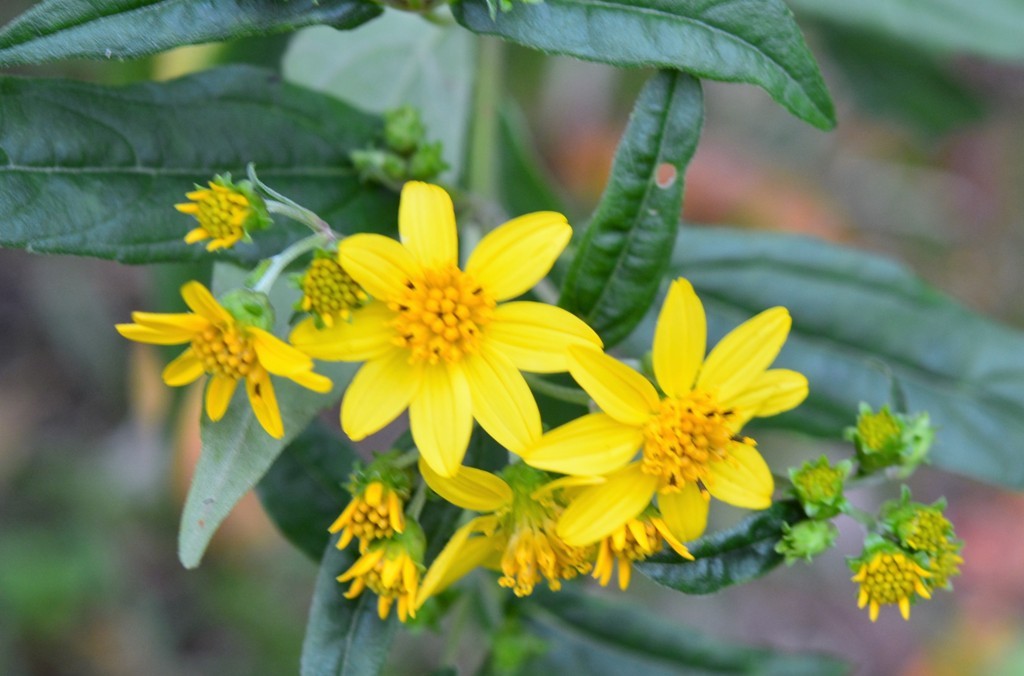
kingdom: Plantae
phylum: Tracheophyta
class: Magnoliopsida
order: Asterales
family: Asteraceae
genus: Perymenium
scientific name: Perymenium gymnolomoides
